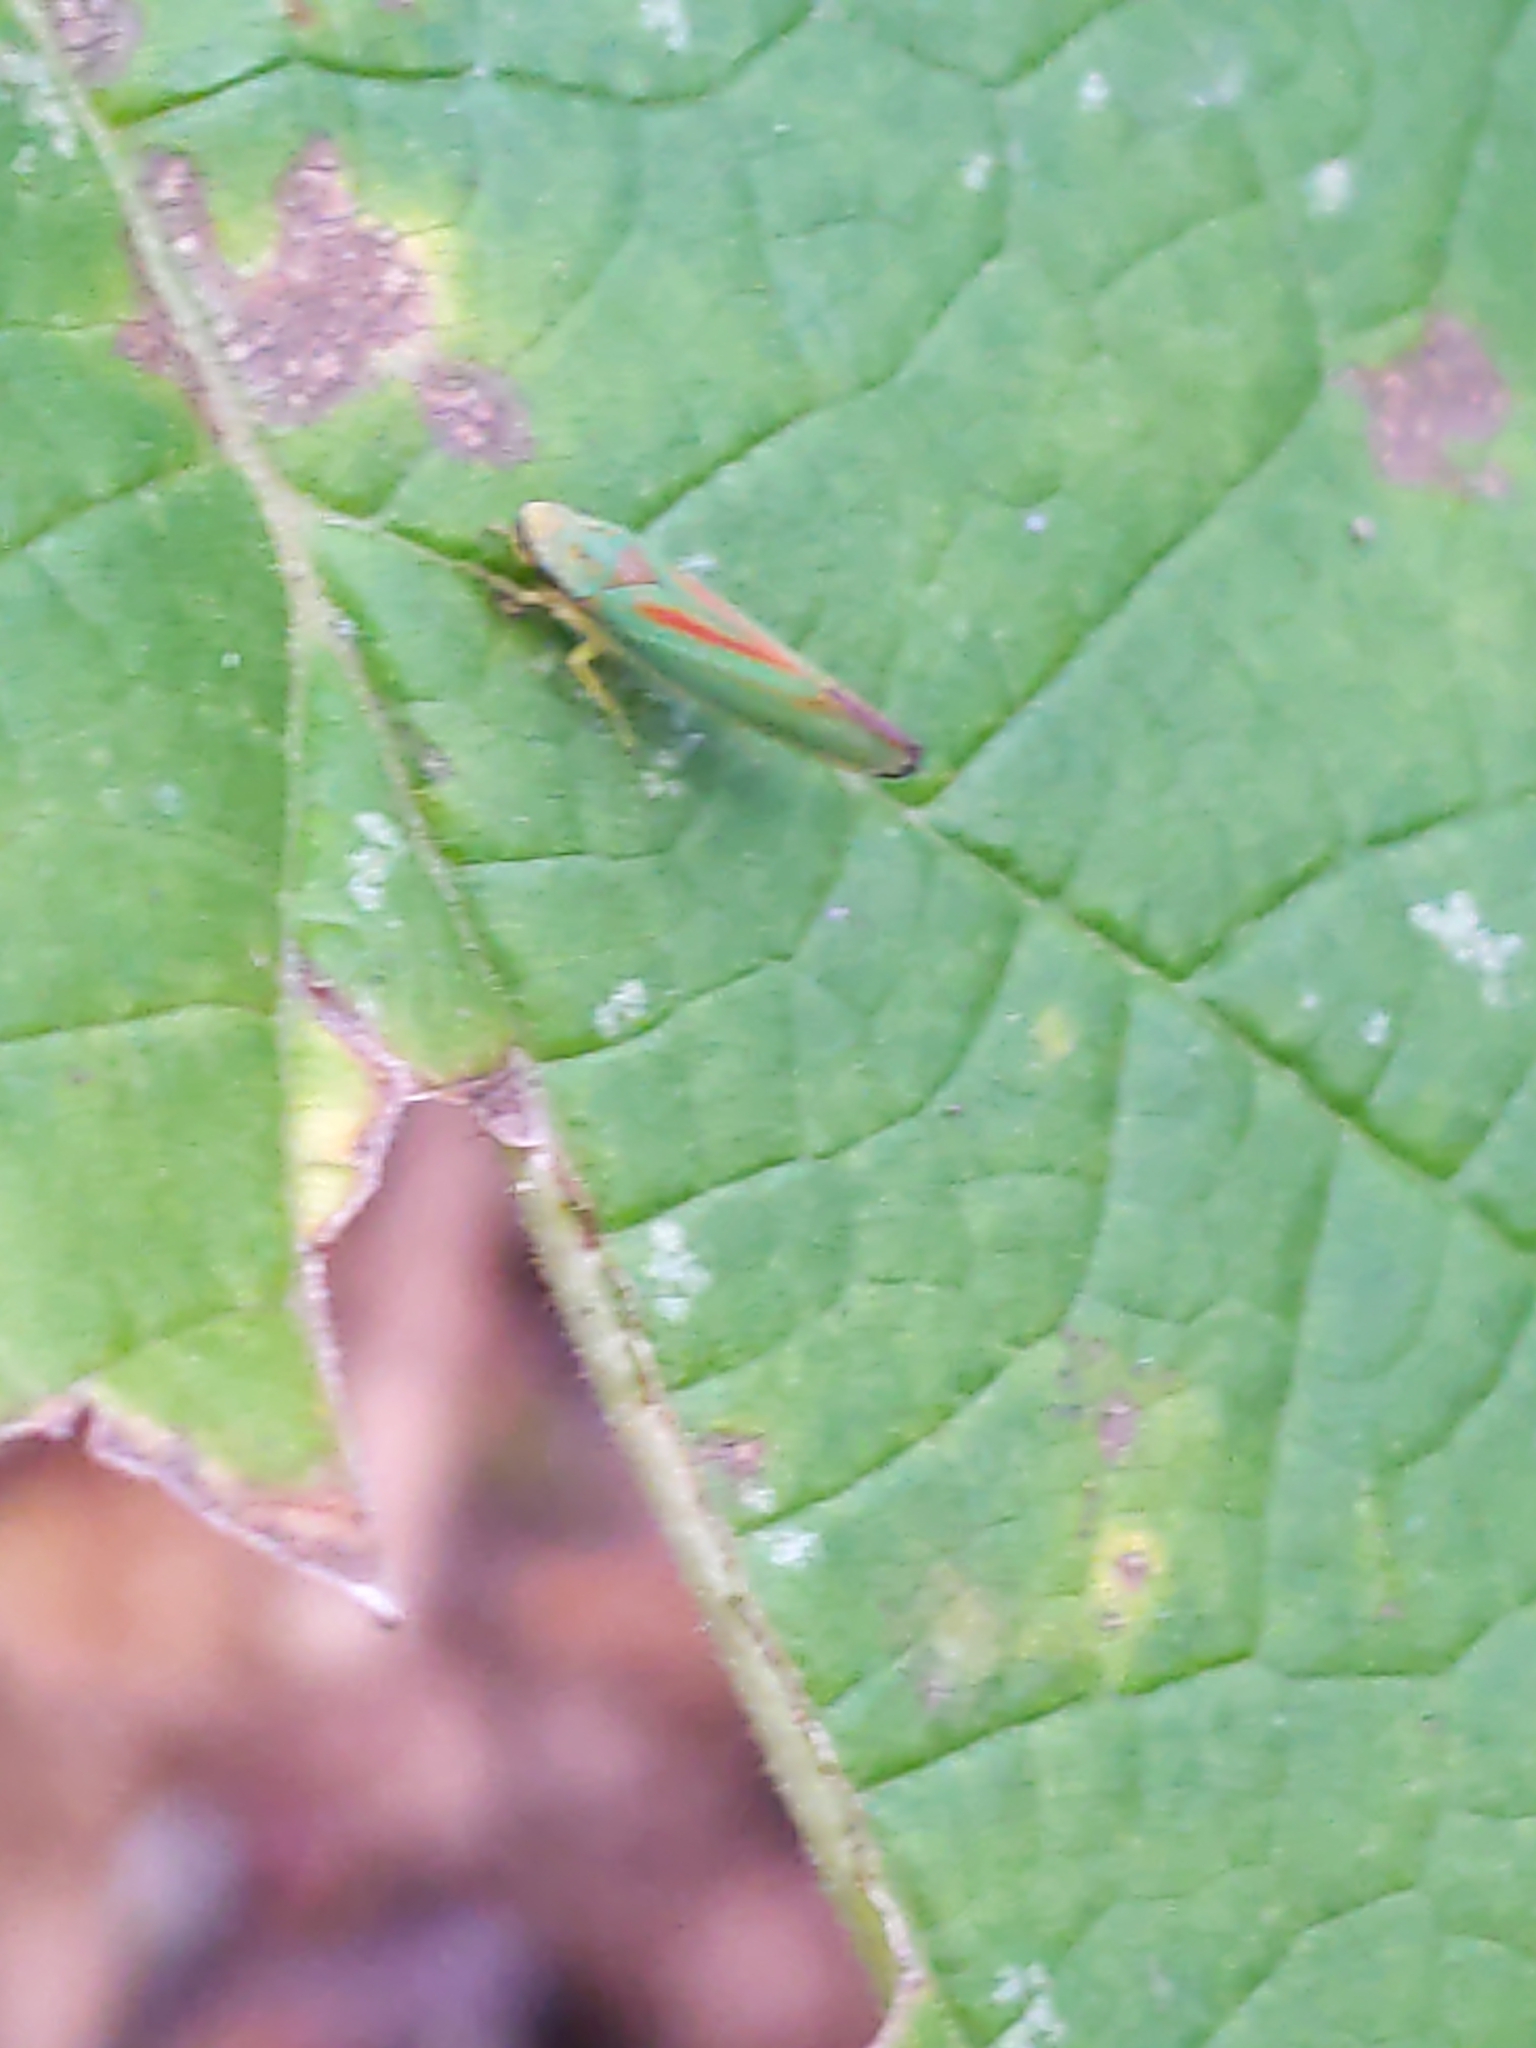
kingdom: Animalia
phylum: Arthropoda
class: Insecta
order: Hemiptera
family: Cicadellidae
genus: Graphocephala
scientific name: Graphocephala fennahi
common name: Rhododendron leafhopper
